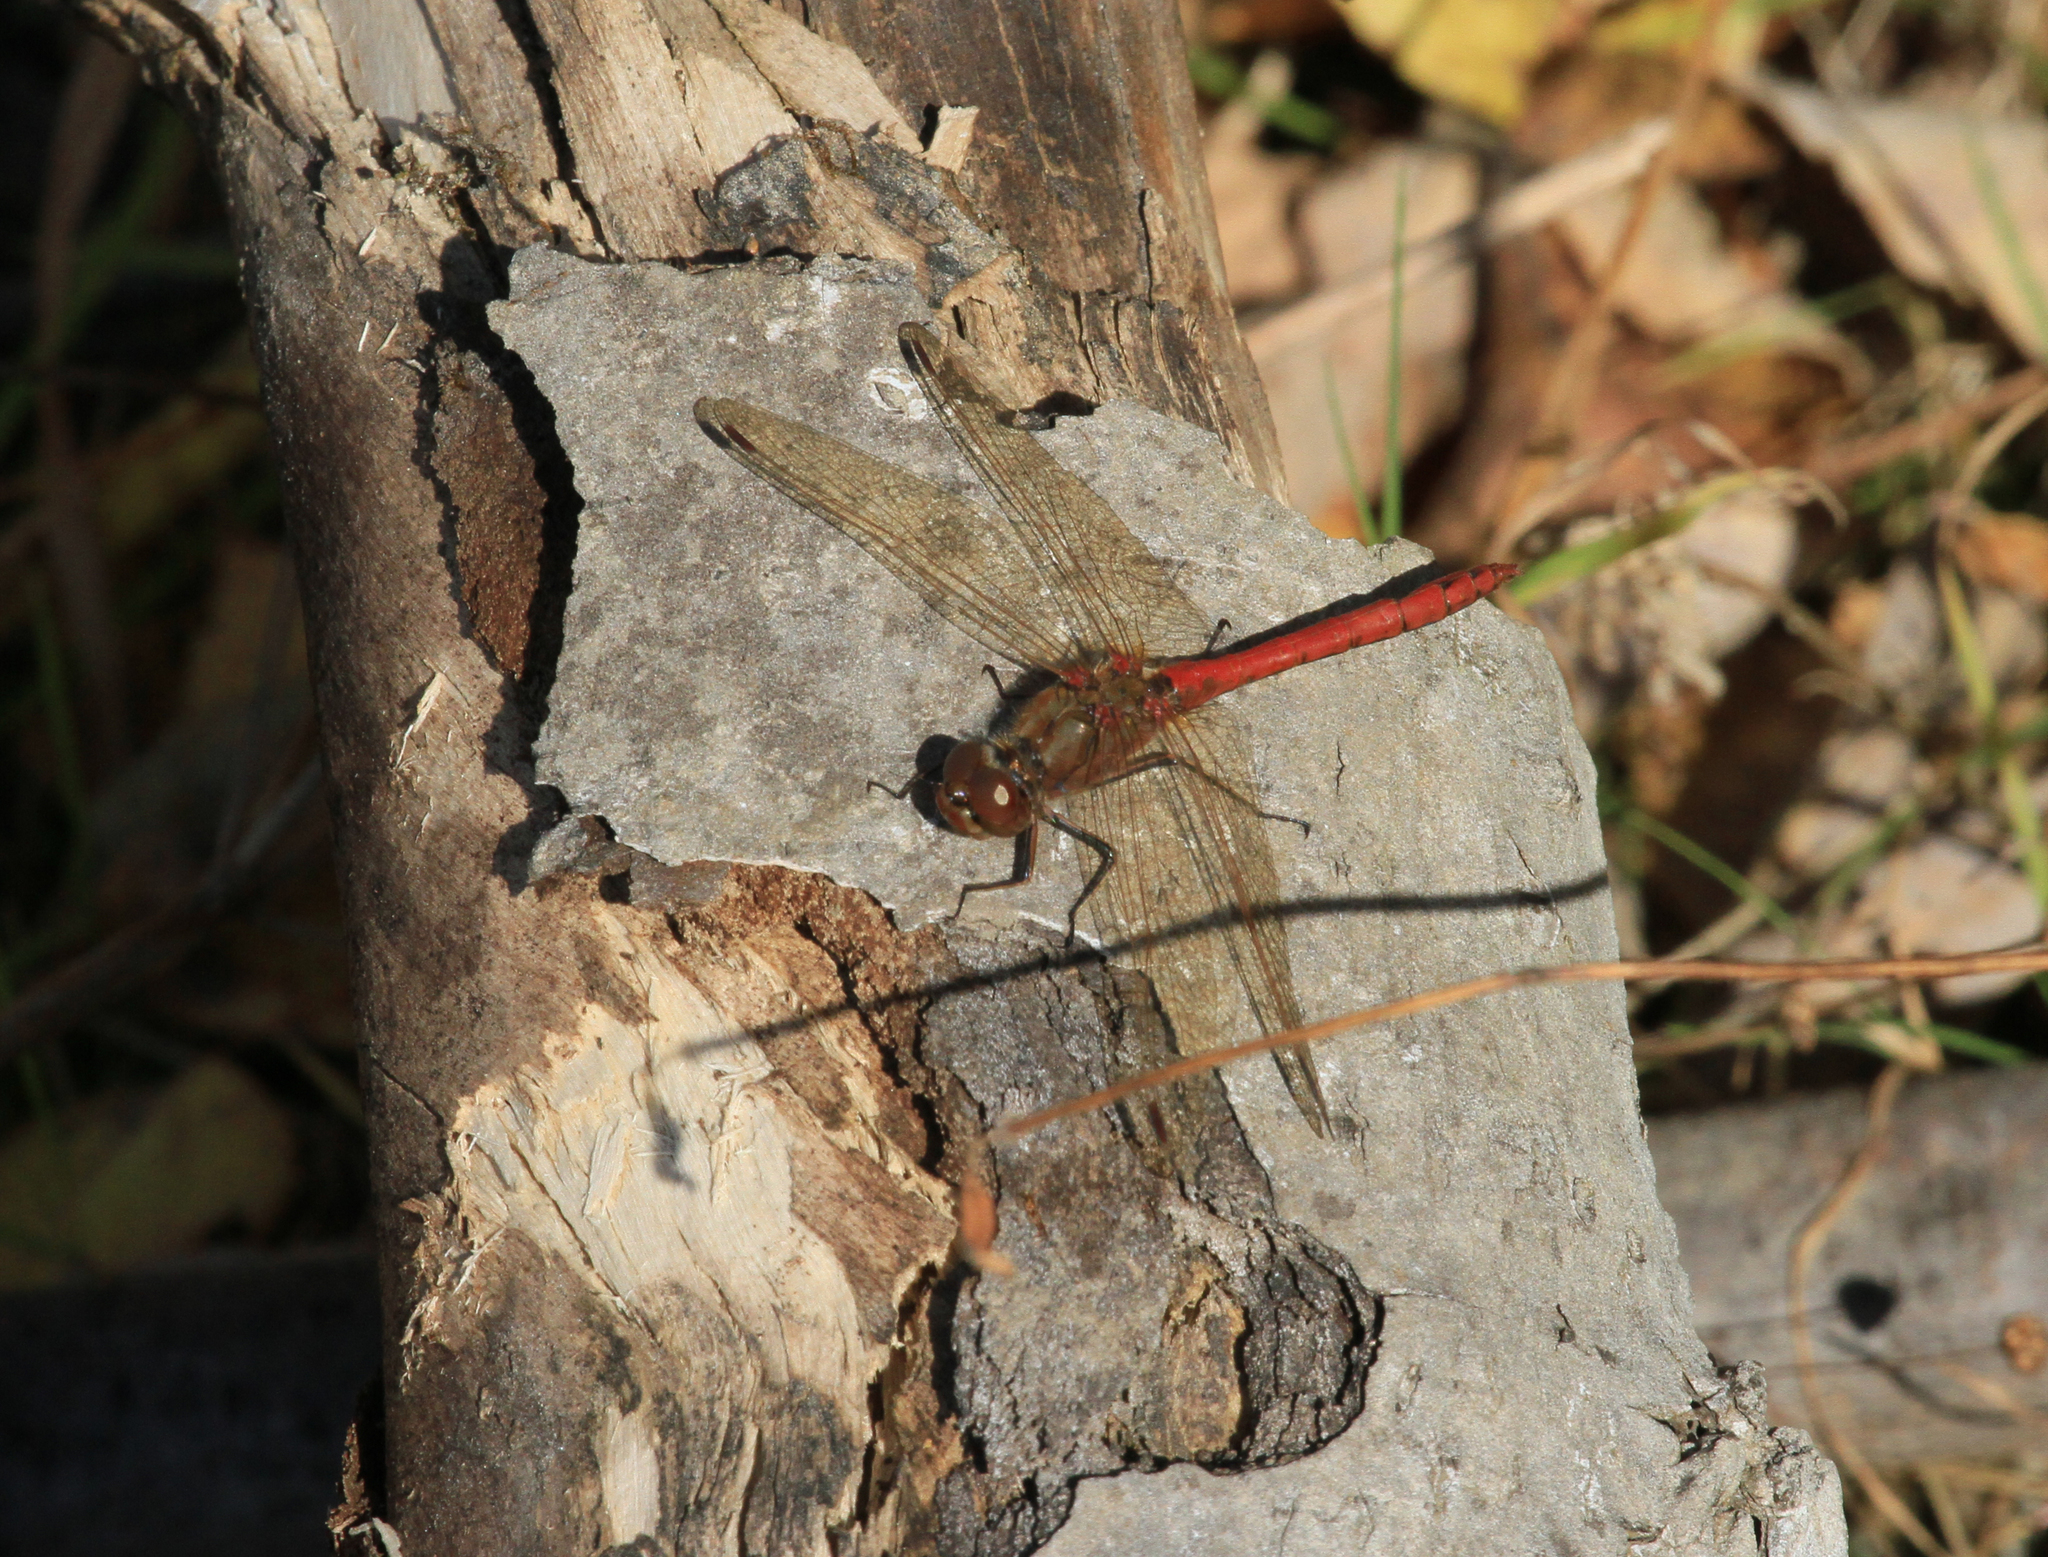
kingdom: Animalia
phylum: Arthropoda
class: Insecta
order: Odonata
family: Libellulidae
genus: Sympetrum
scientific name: Sympetrum vulgatum
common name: Vagrant darter
